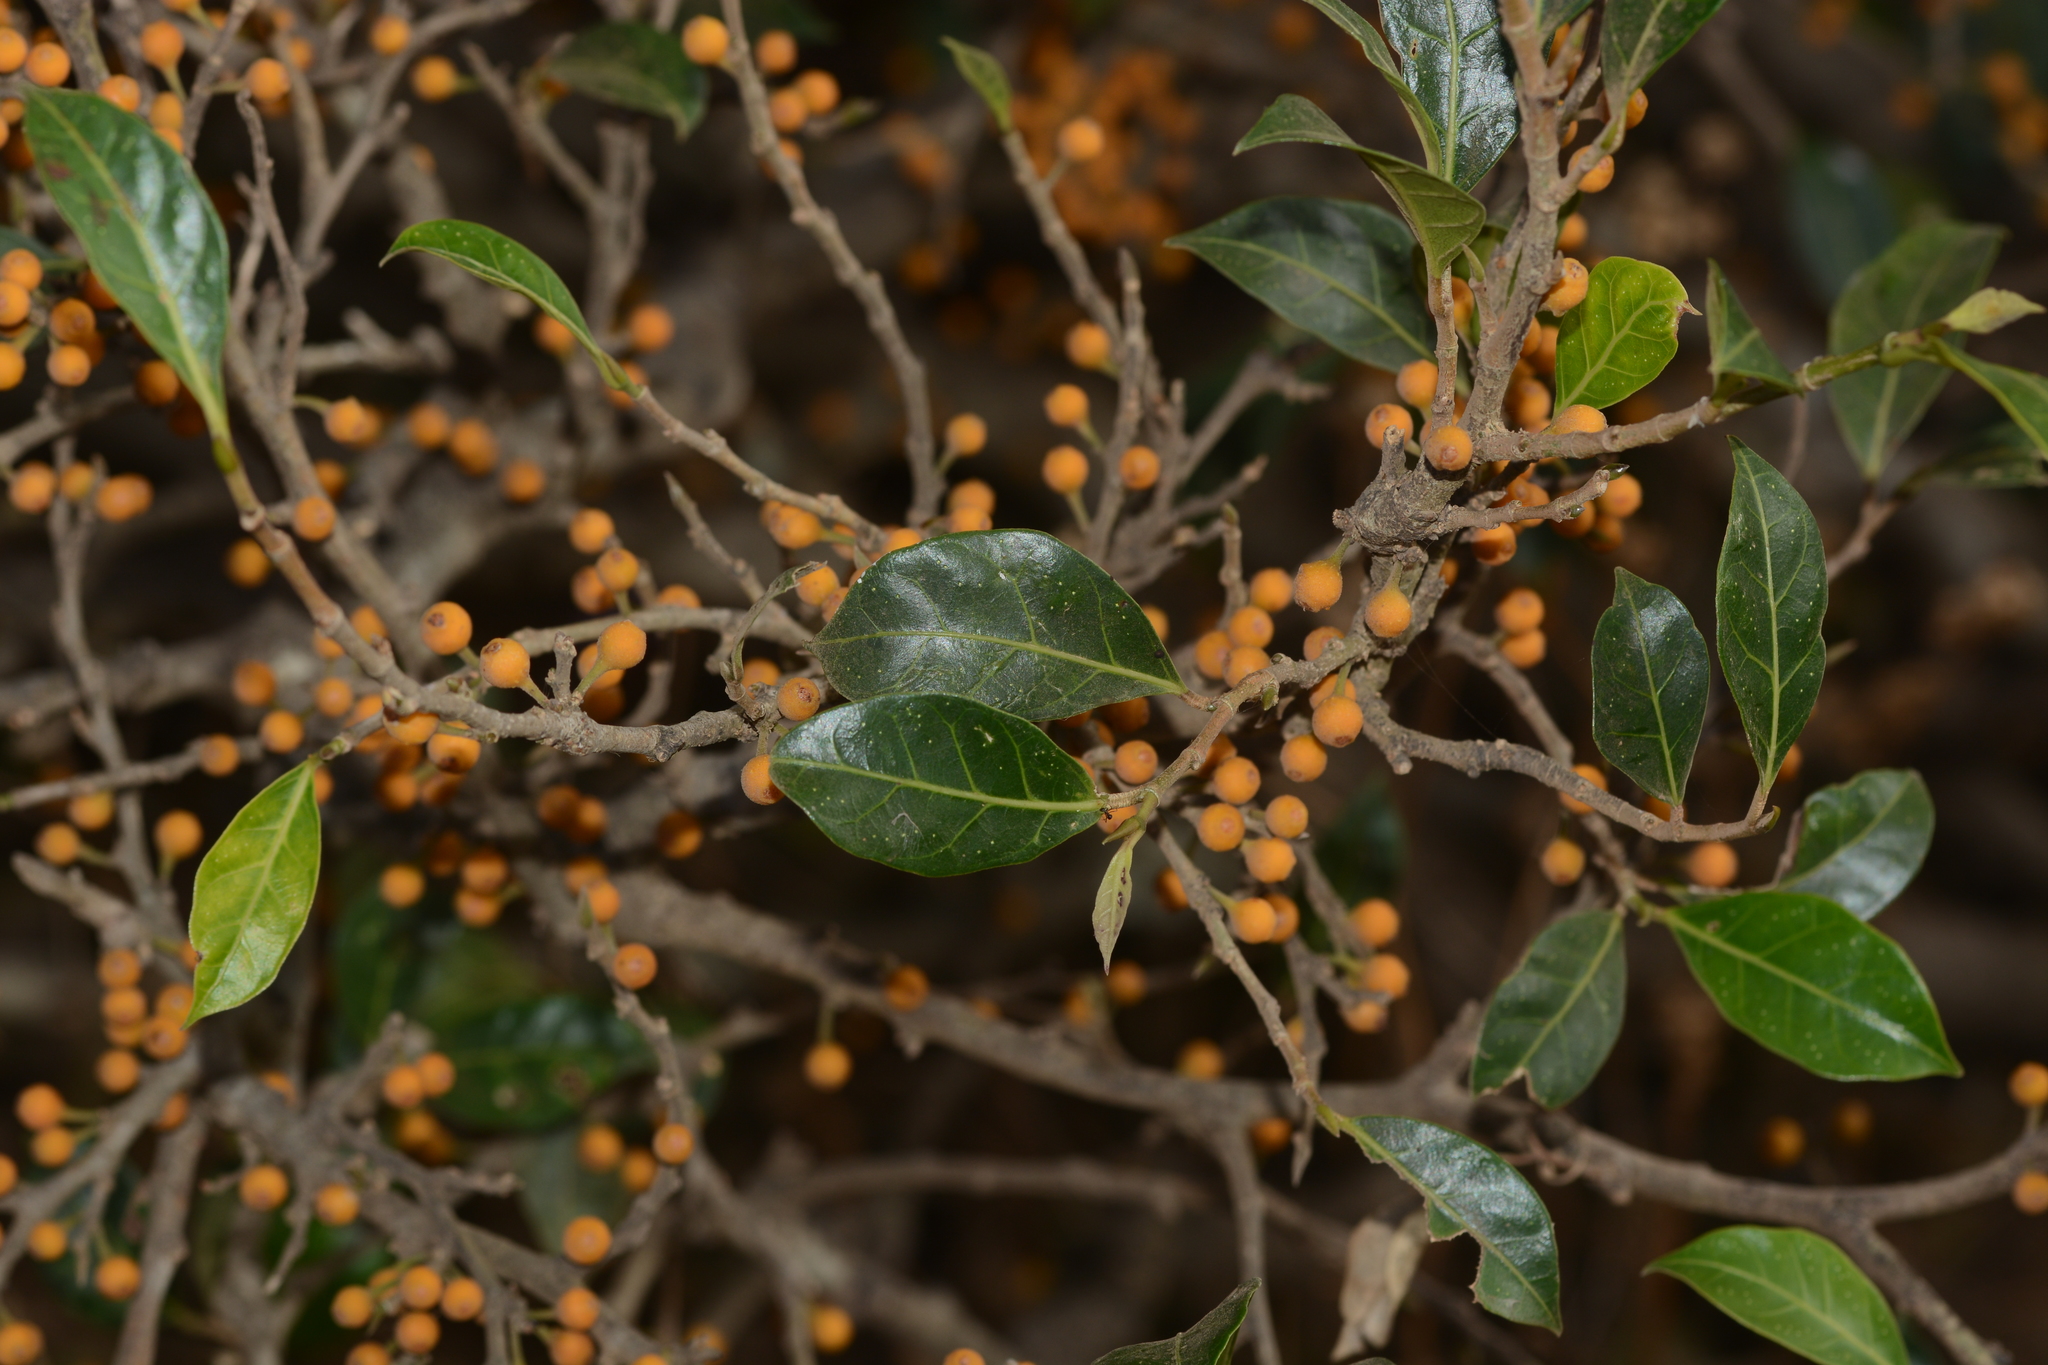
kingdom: Plantae
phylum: Tracheophyta
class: Magnoliopsida
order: Rosales
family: Moraceae
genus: Ficus
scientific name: Ficus tinctoria
